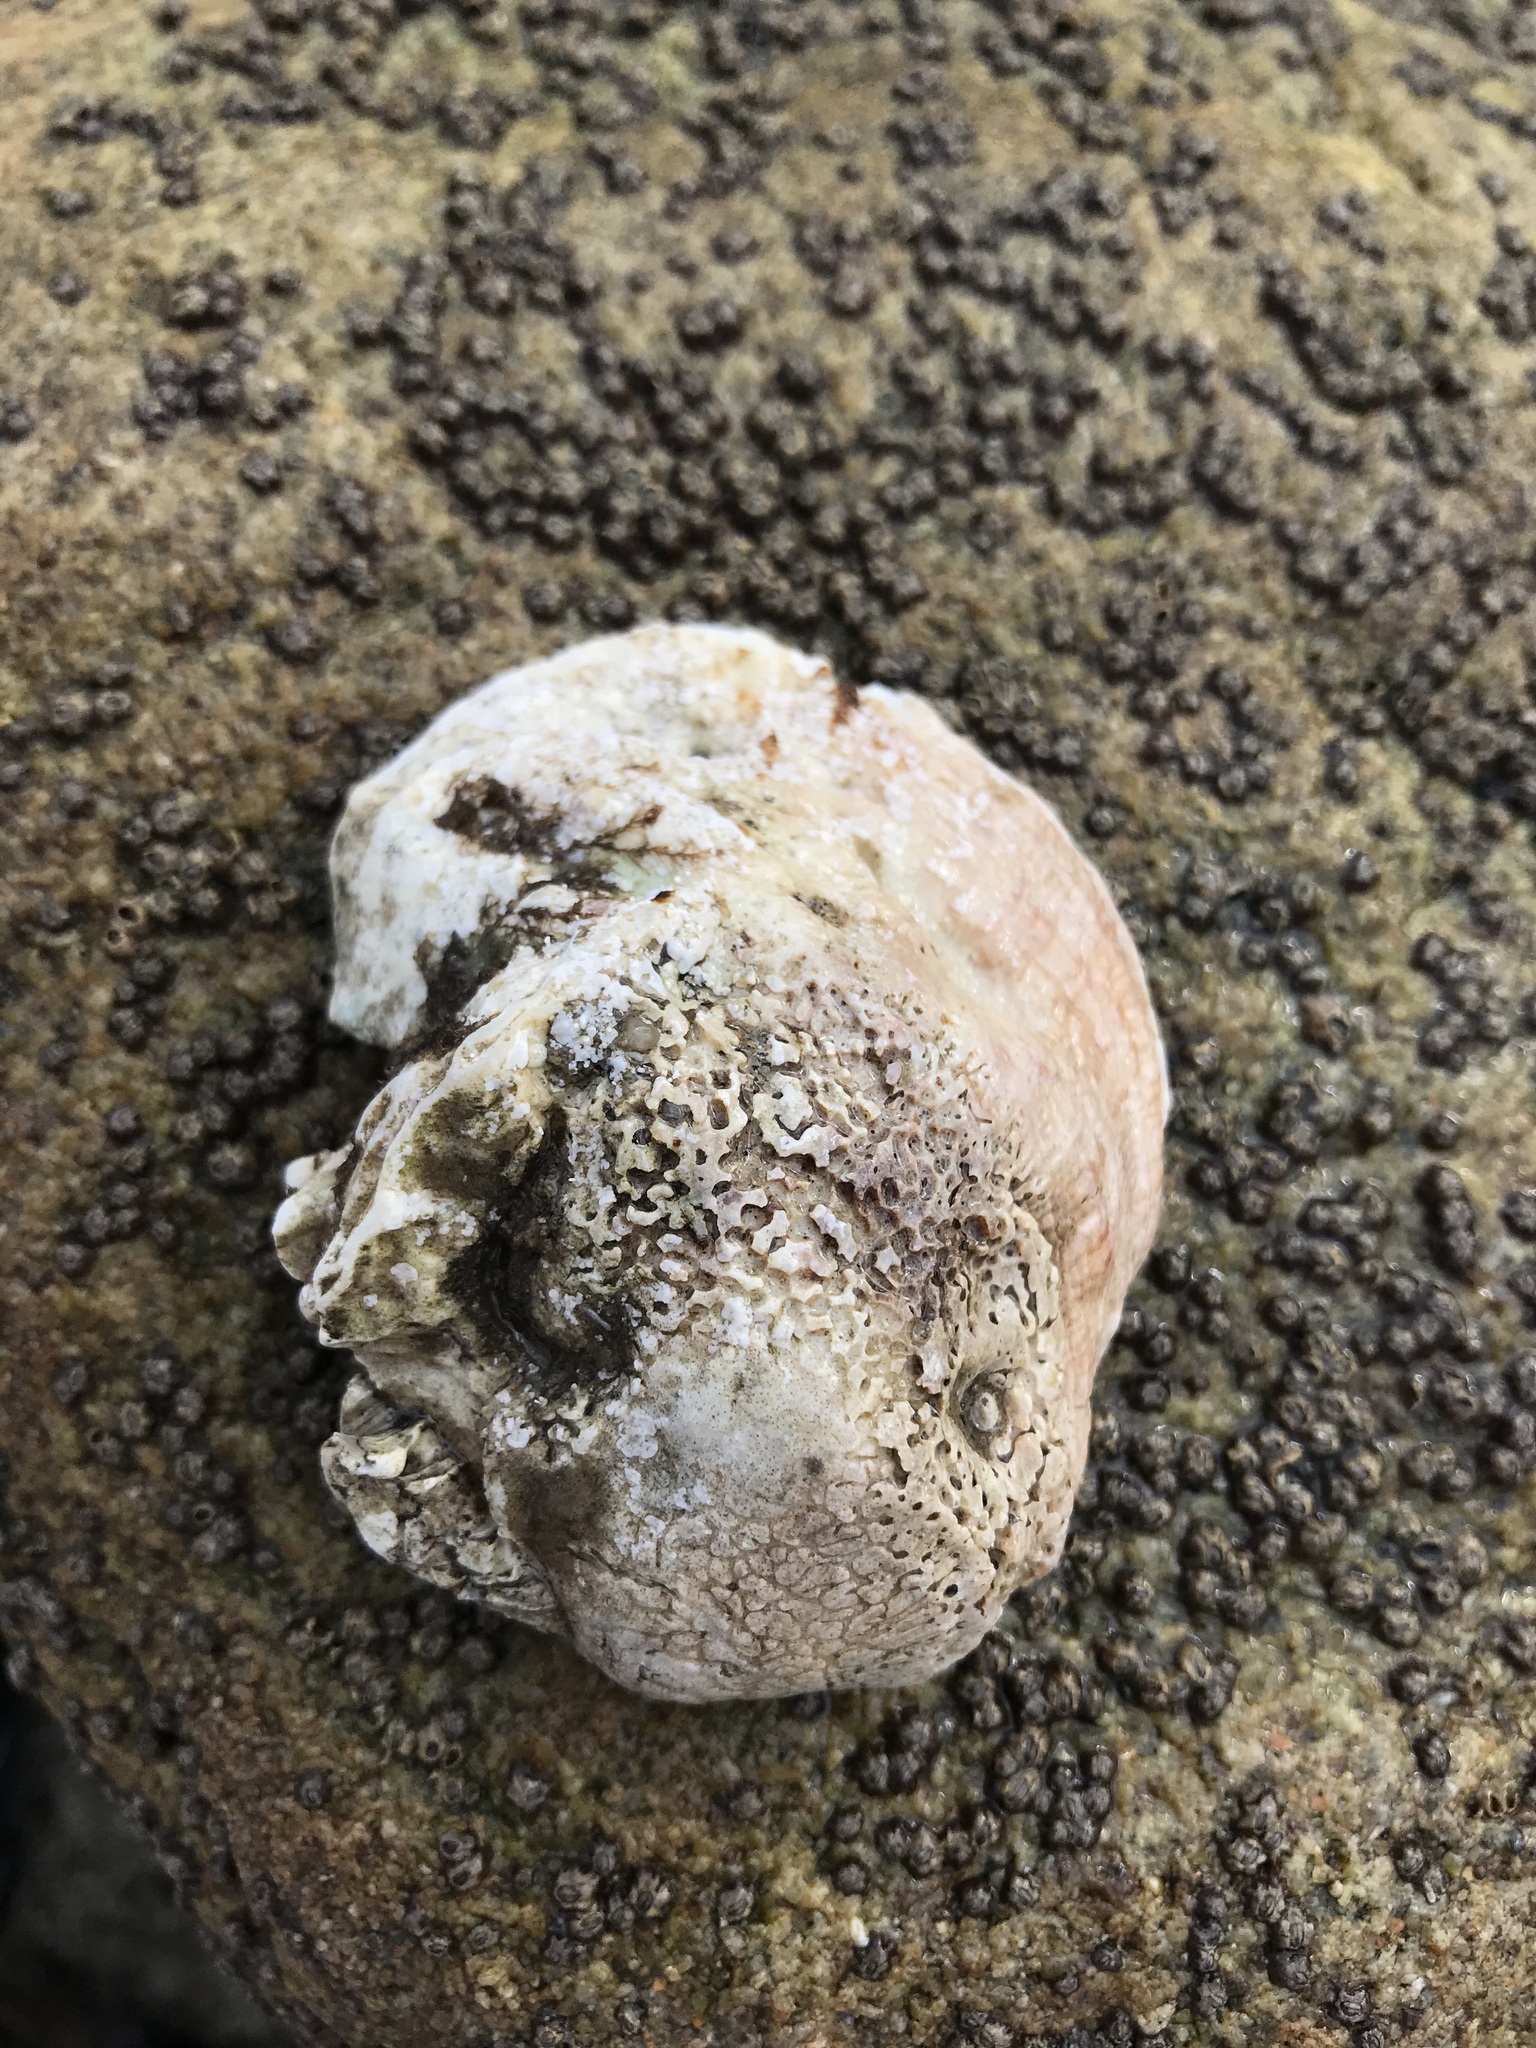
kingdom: Animalia
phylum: Mollusca
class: Bivalvia
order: Pectinida
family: Pectinidae
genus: Crassadoma
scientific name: Crassadoma gigantea
